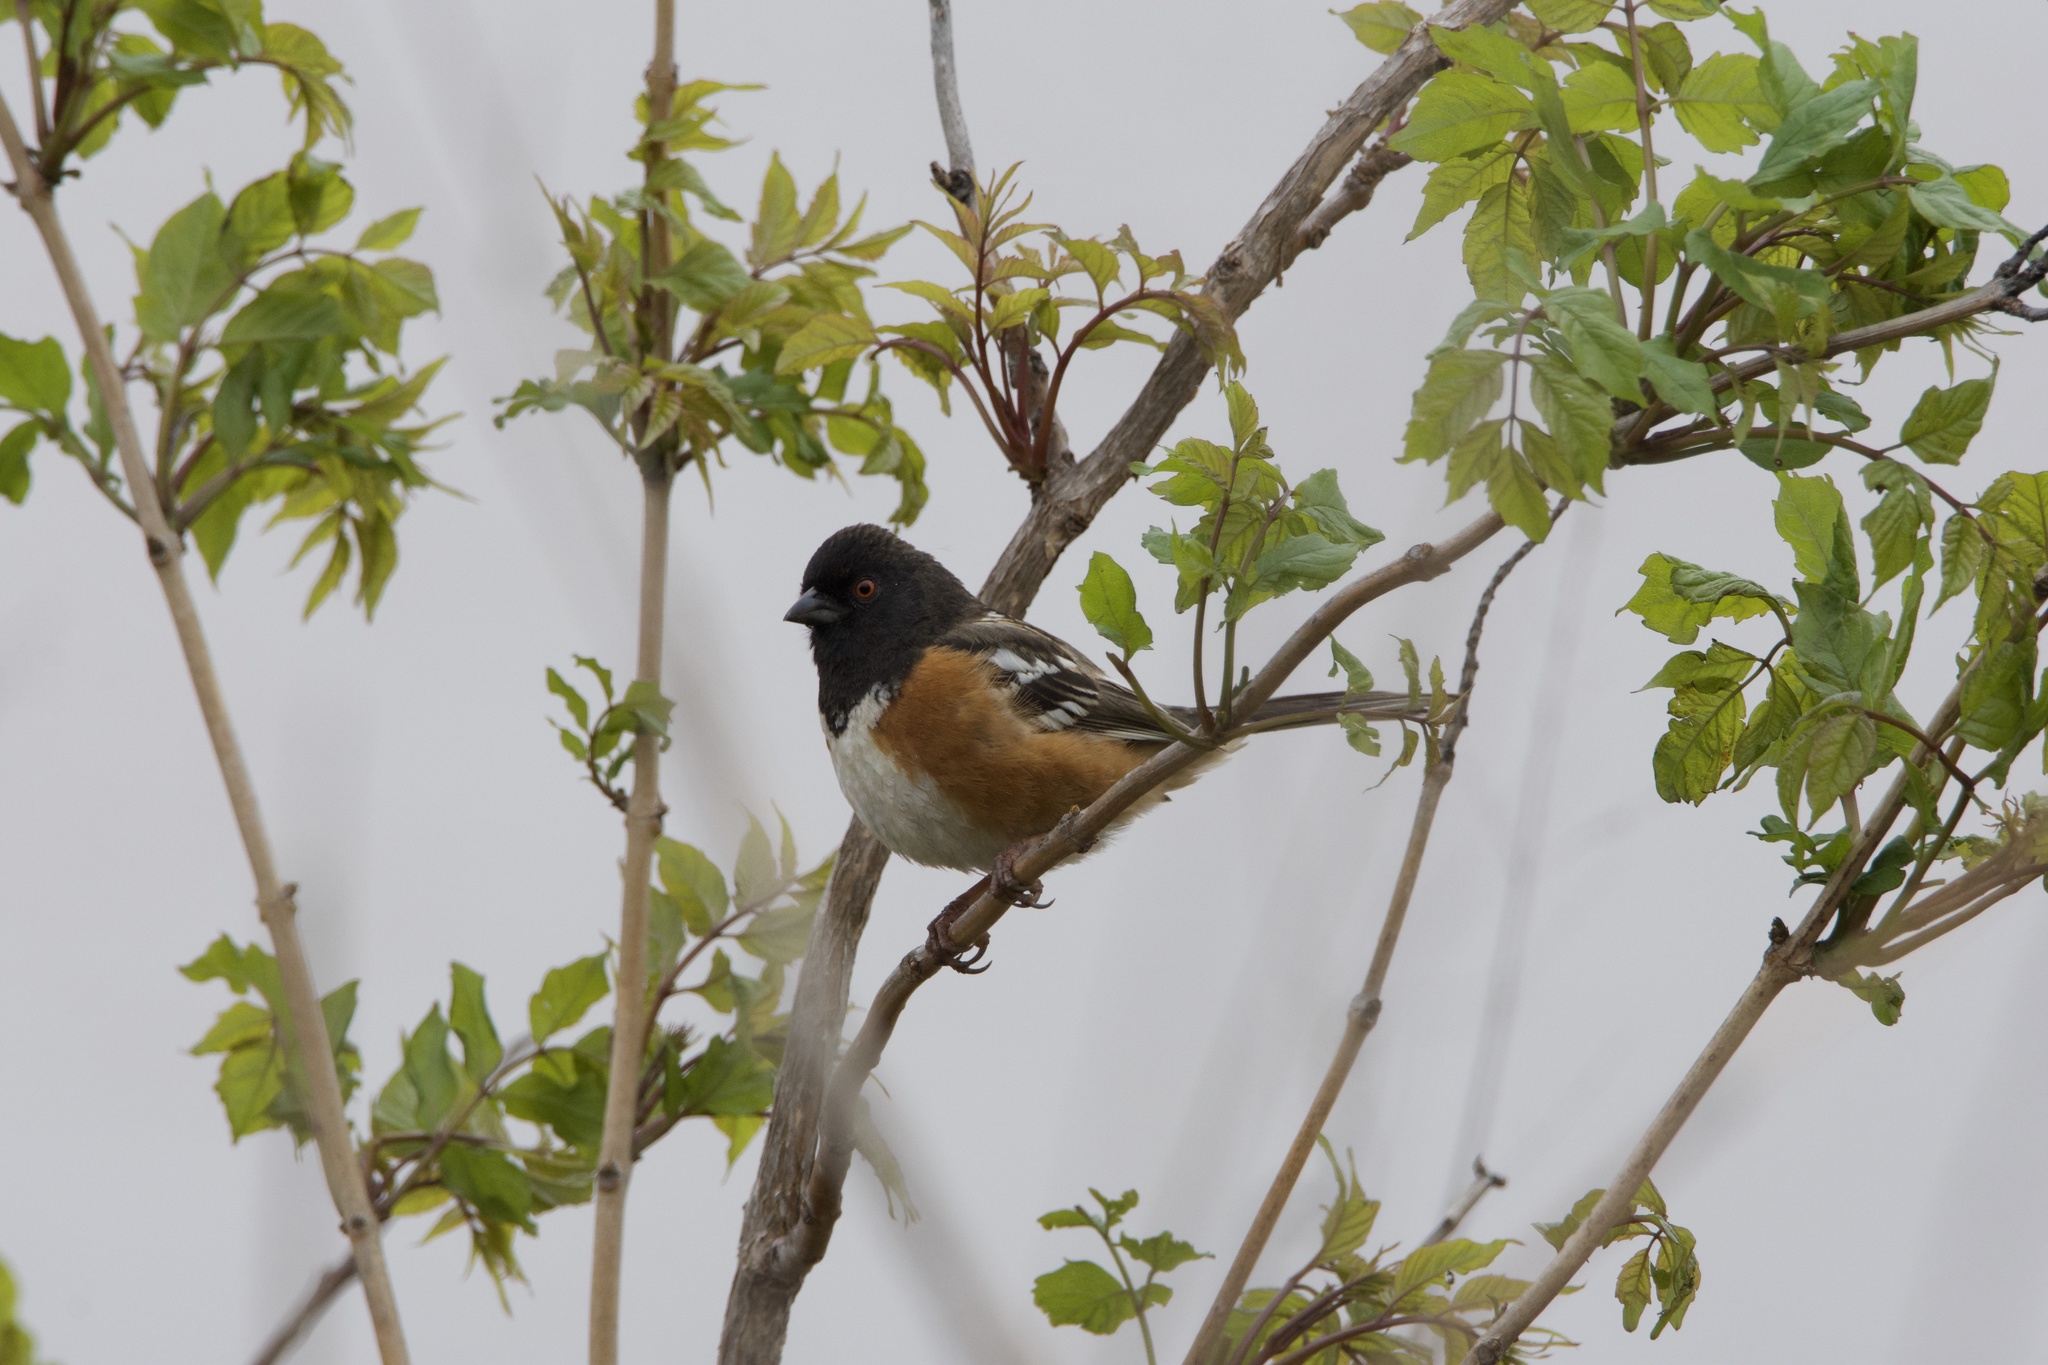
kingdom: Animalia
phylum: Chordata
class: Aves
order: Passeriformes
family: Passerellidae
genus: Pipilo
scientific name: Pipilo maculatus
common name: Spotted towhee
